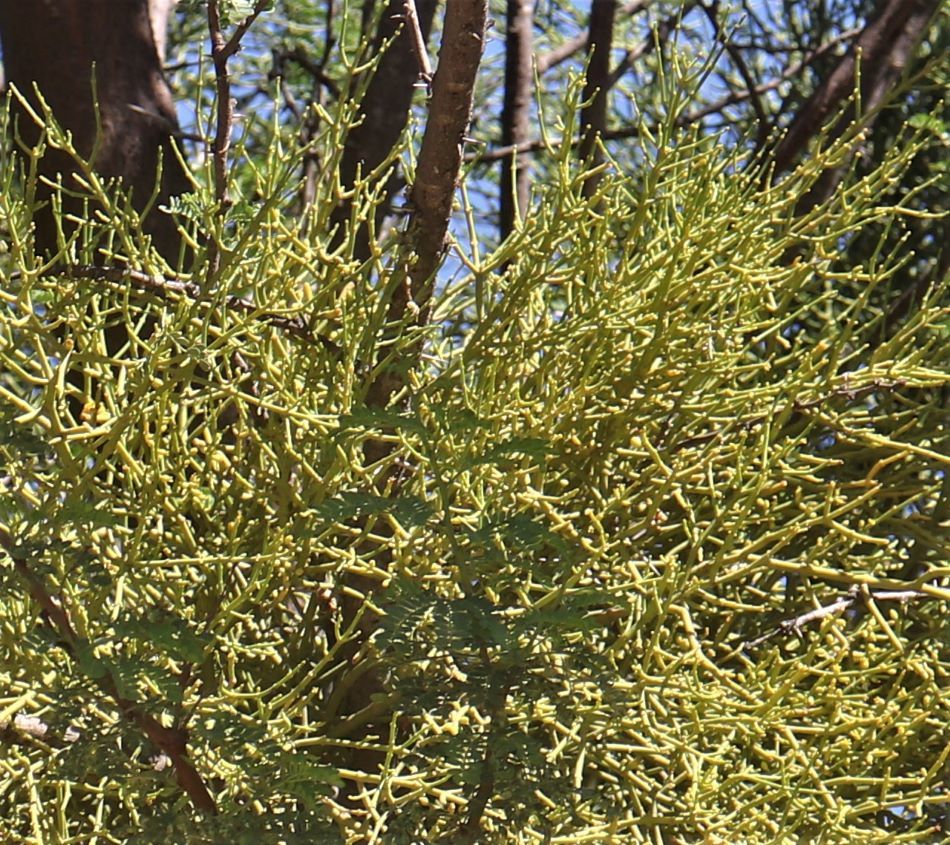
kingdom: Plantae
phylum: Tracheophyta
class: Magnoliopsida
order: Santalales
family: Viscaceae
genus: Viscum
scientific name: Viscum continuum
